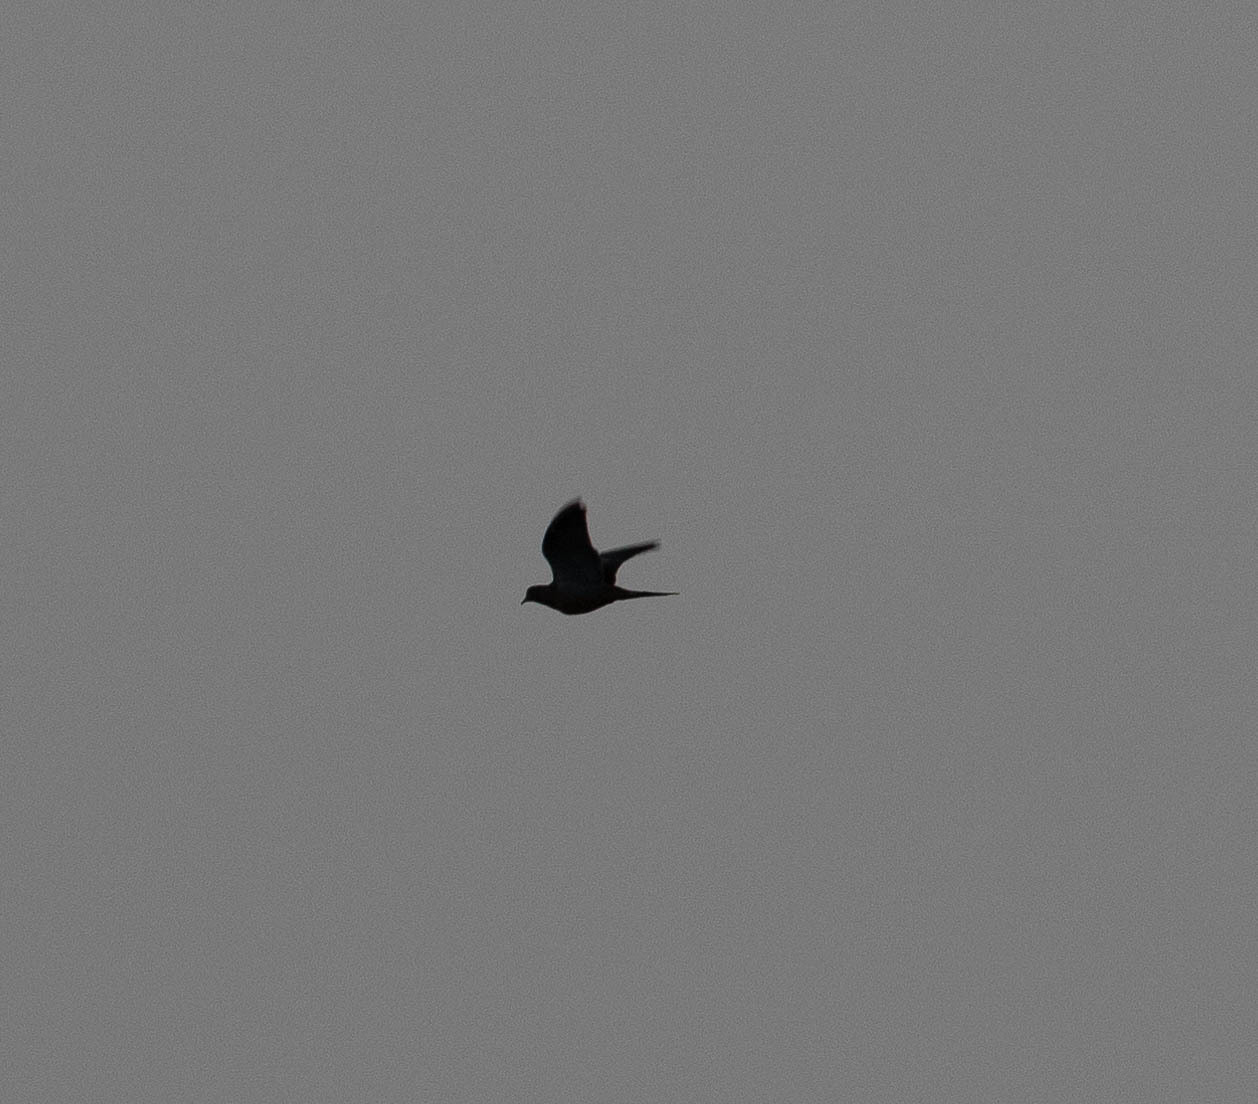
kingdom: Animalia
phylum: Chordata
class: Aves
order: Columbiformes
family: Columbidae
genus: Zenaida
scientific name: Zenaida macroura
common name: Mourning dove
